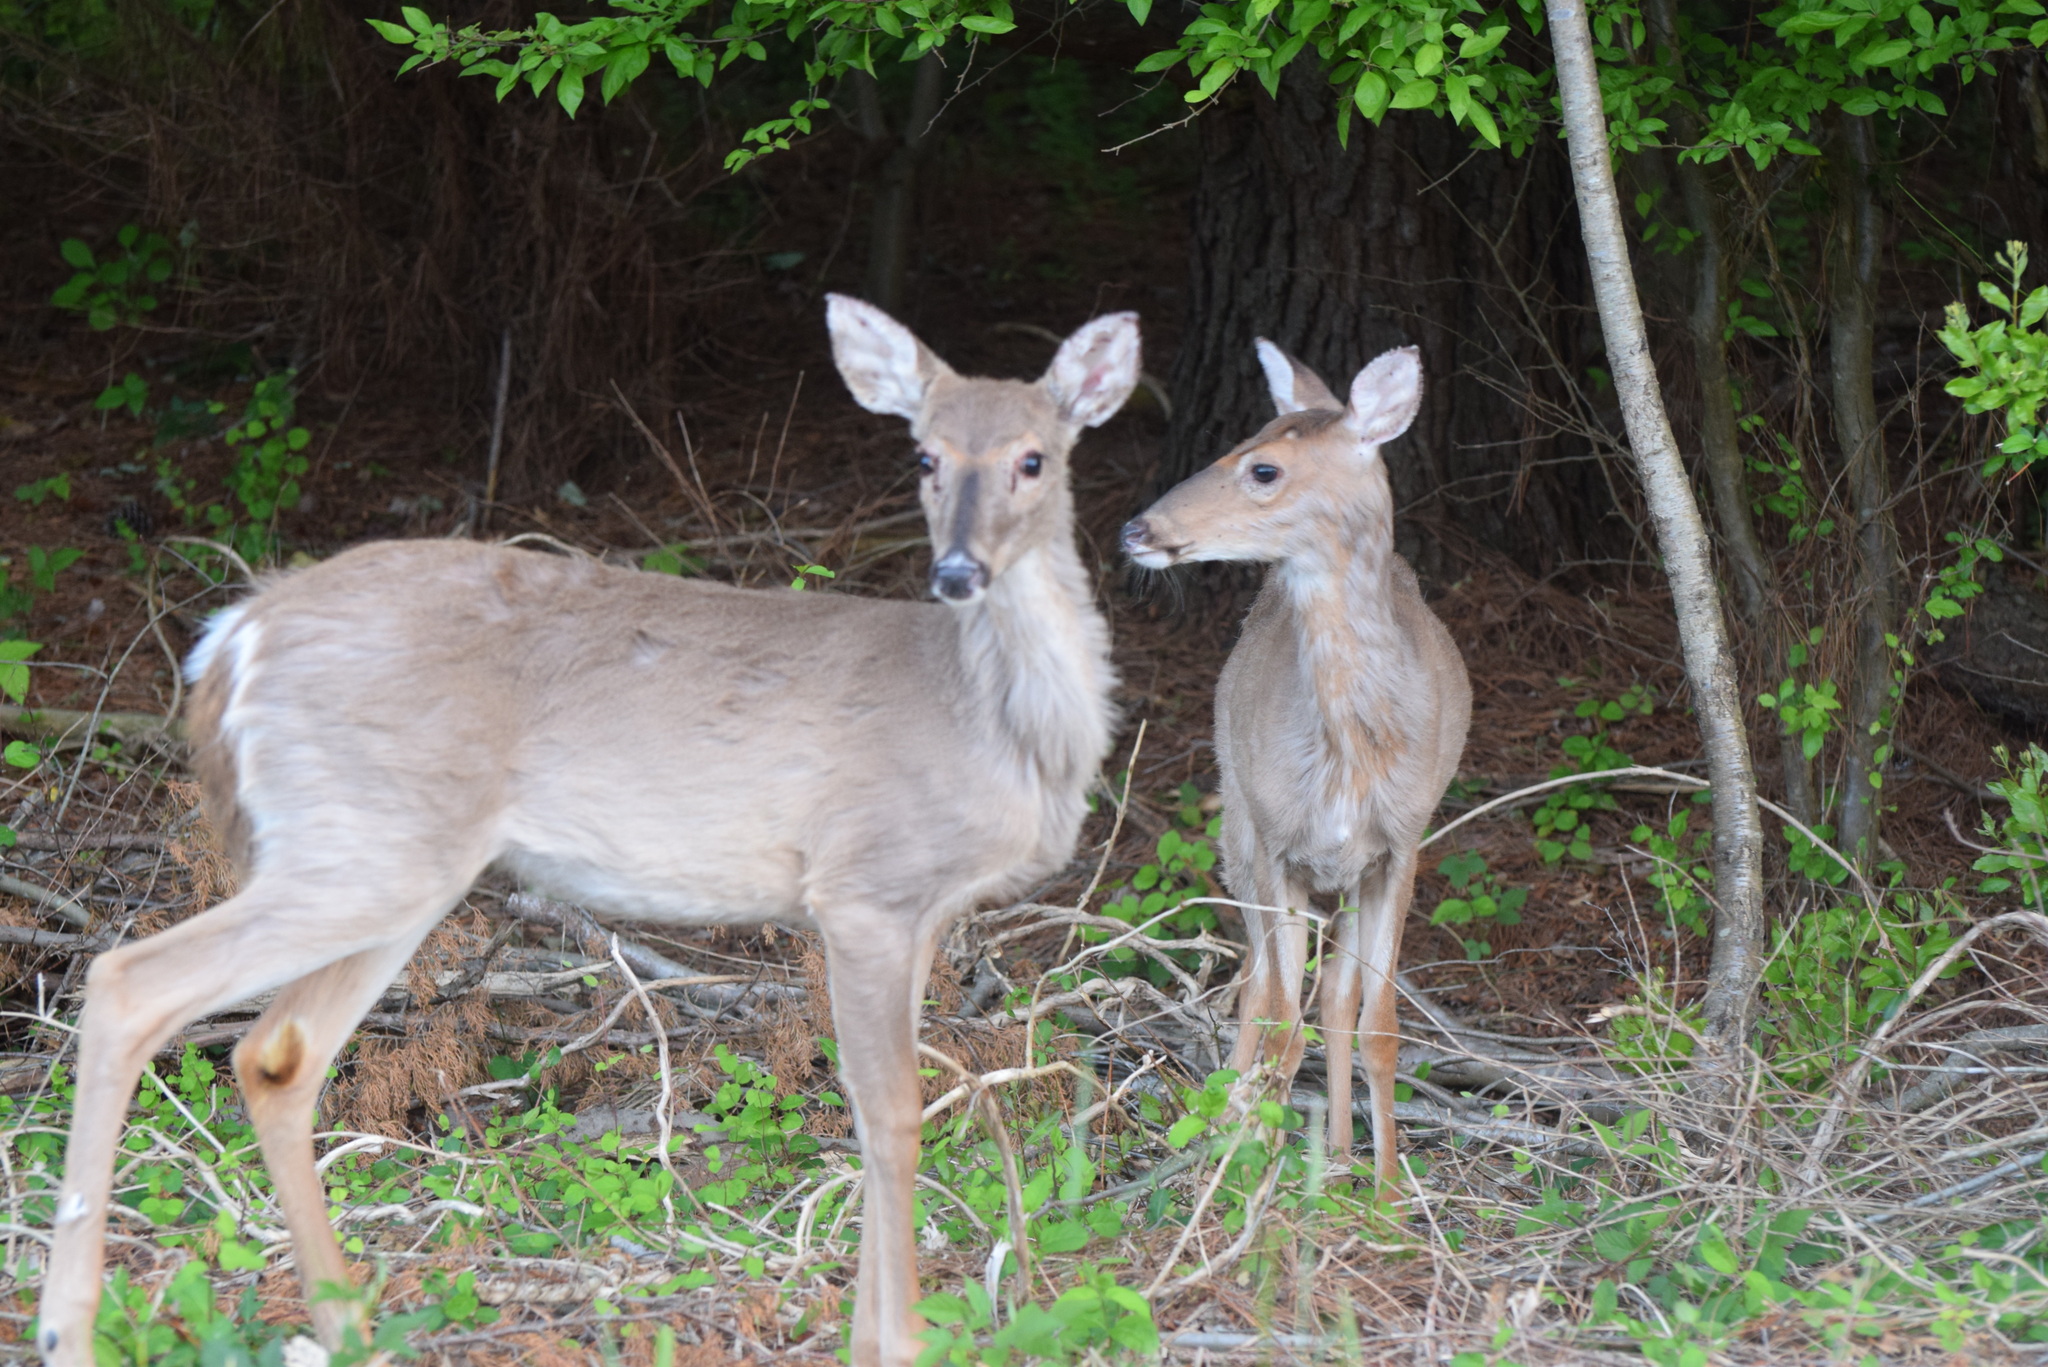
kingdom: Animalia
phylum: Chordata
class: Mammalia
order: Artiodactyla
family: Cervidae
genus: Odocoileus
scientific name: Odocoileus virginianus
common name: White-tailed deer
